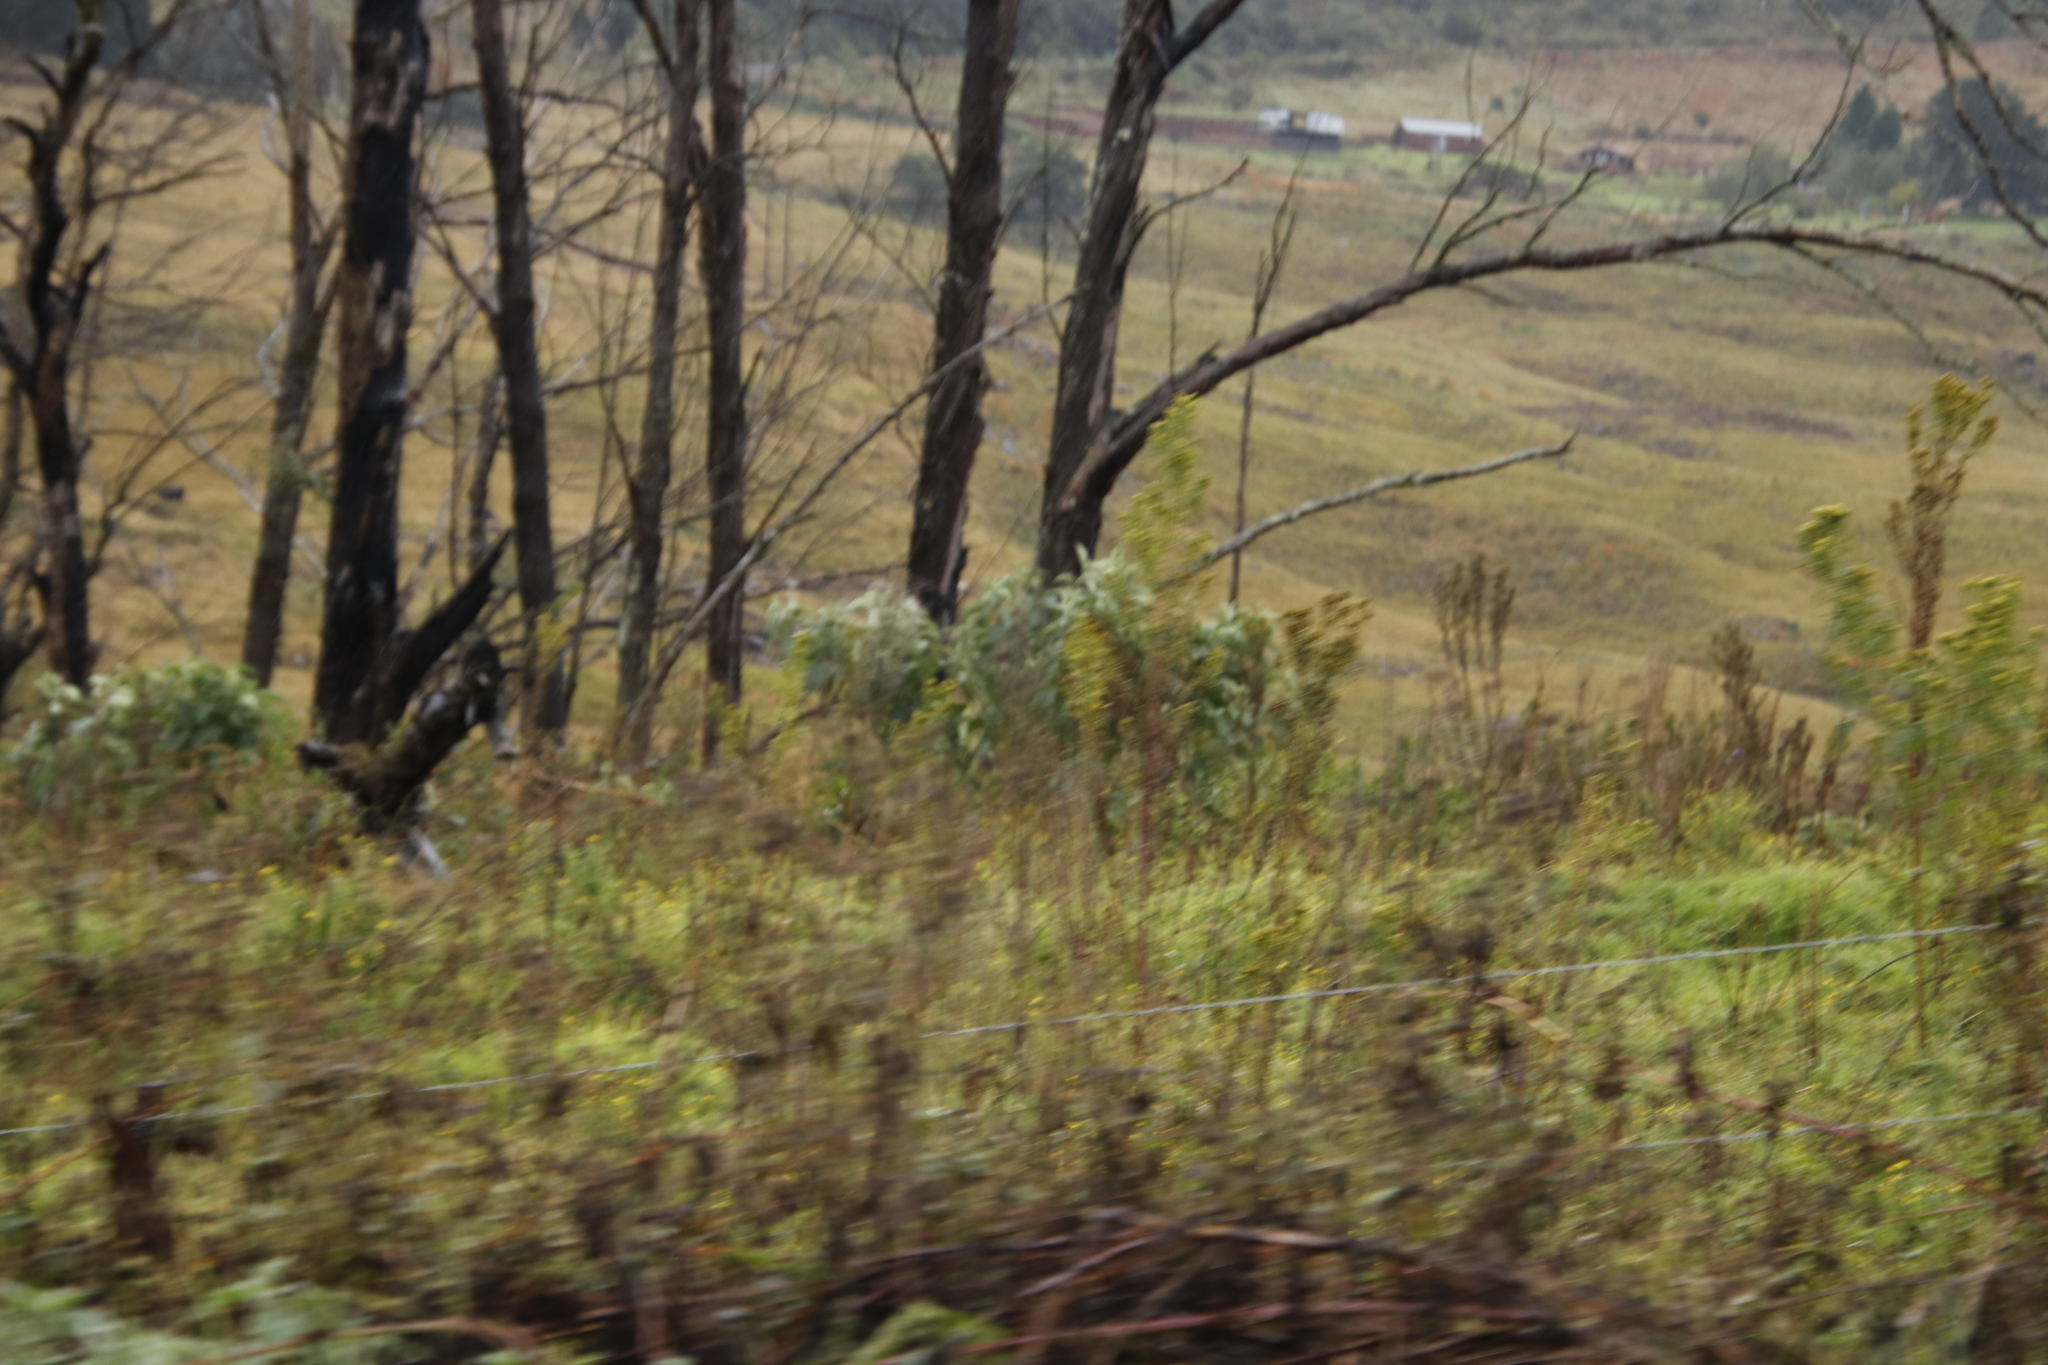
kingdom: Plantae
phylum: Tracheophyta
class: Magnoliopsida
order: Asterales
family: Asteraceae
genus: Tagetes
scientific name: Tagetes minuta
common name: Muster john henry
